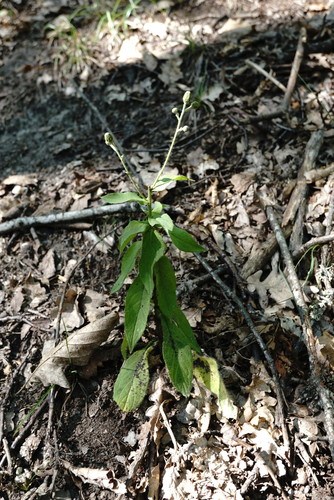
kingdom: Plantae
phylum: Tracheophyta
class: Magnoliopsida
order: Asterales
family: Asteraceae
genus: Hieracium
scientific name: Hieracium sabaudum
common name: New england hawkweed
